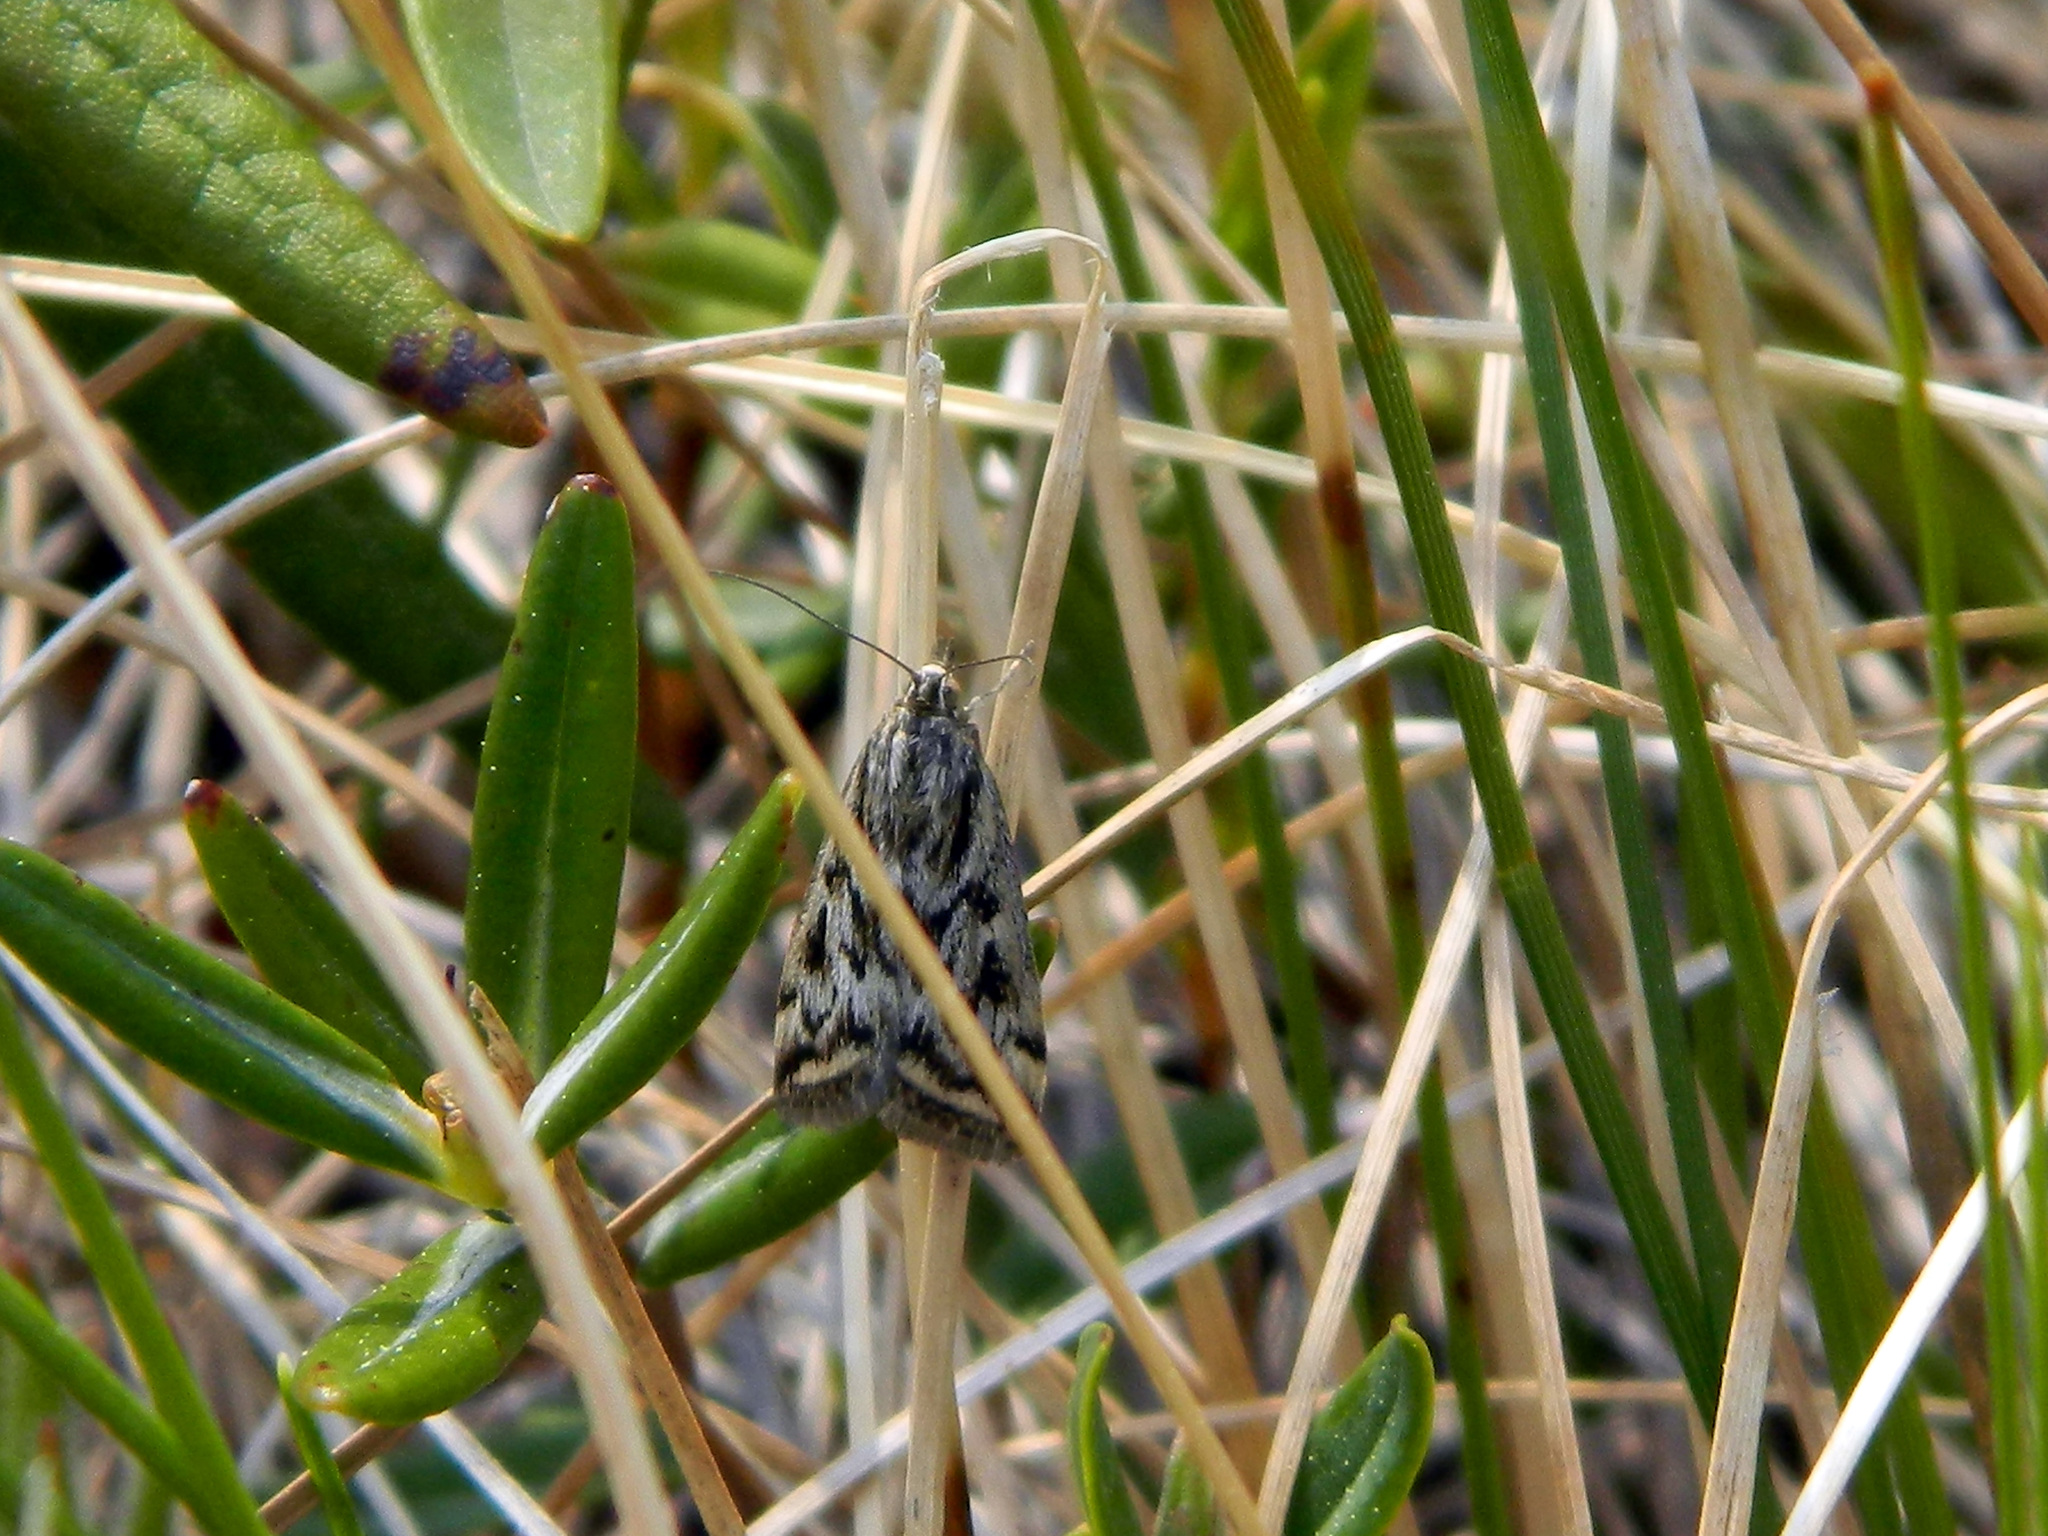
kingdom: Animalia
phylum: Arthropoda
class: Insecta
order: Lepidoptera
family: Crambidae
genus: Loxostege
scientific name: Loxostege commixtalis
